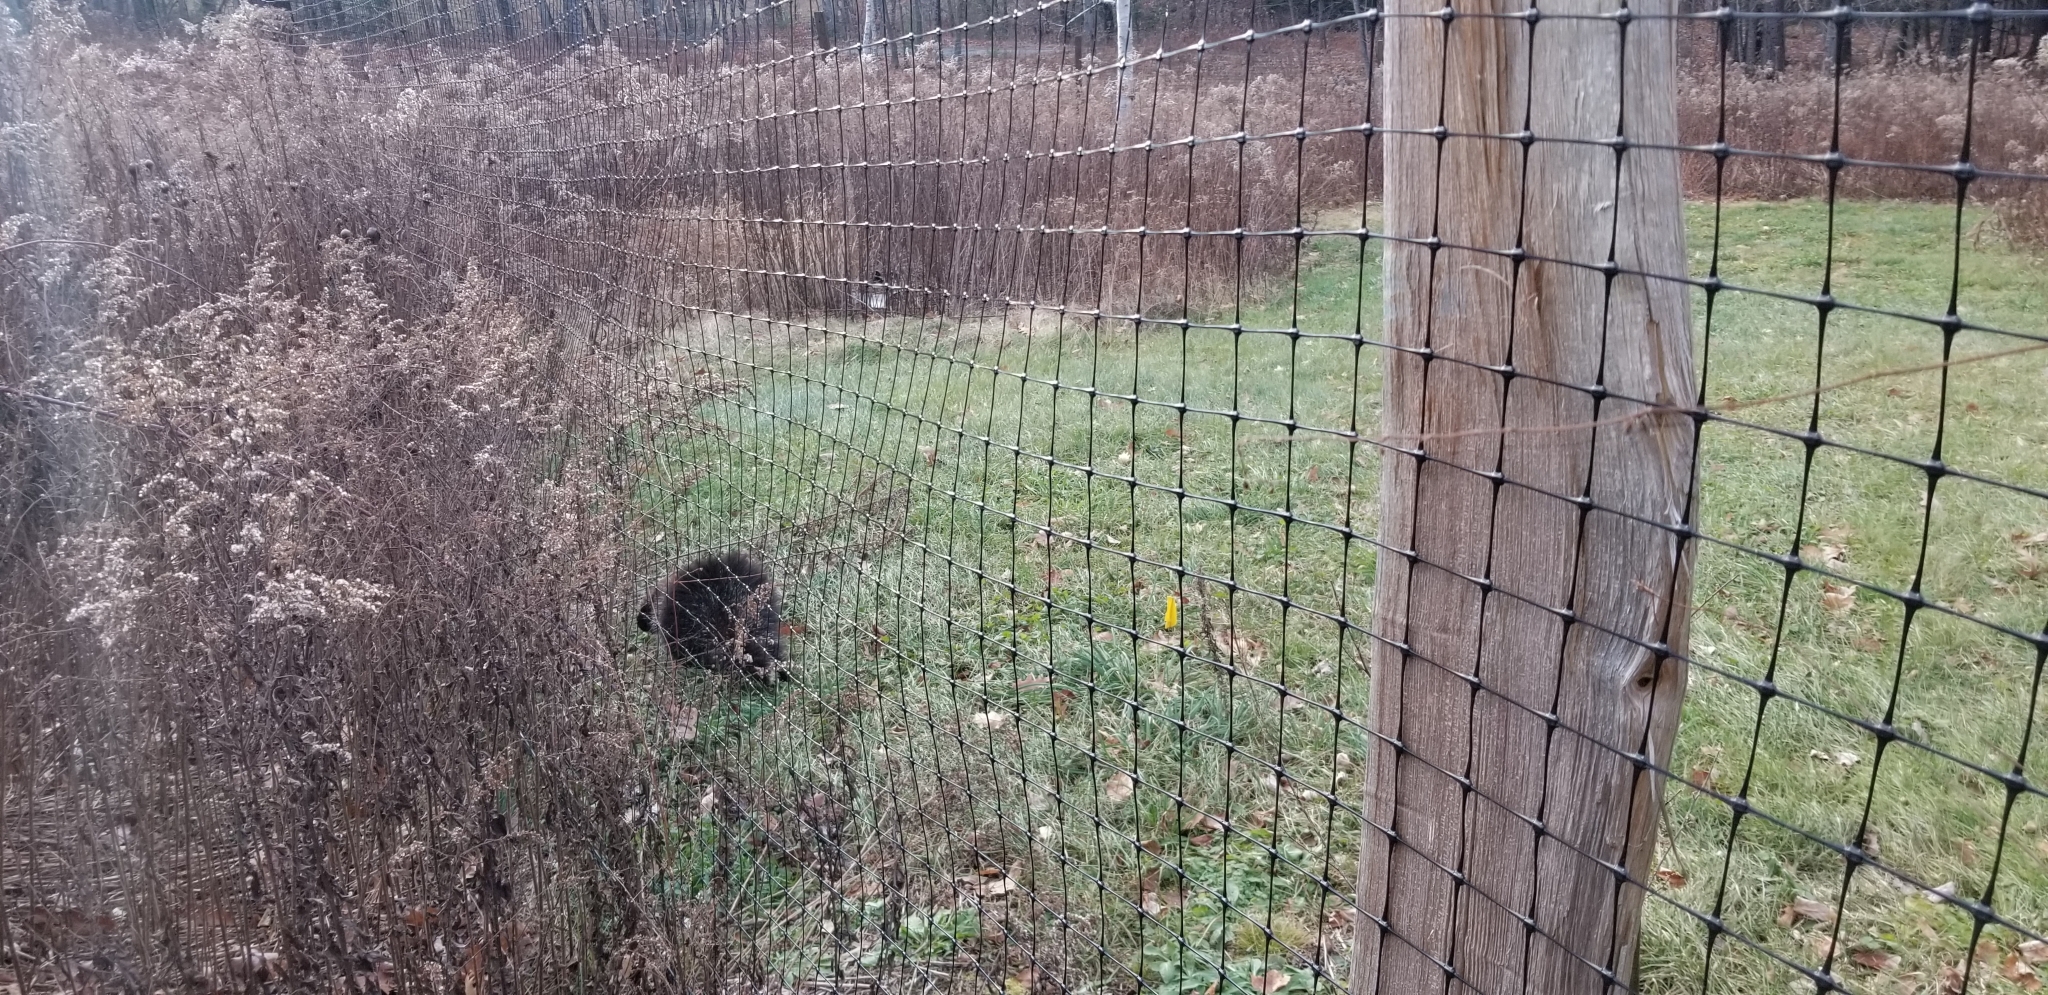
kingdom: Animalia
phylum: Chordata
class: Mammalia
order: Rodentia
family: Erethizontidae
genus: Erethizon
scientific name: Erethizon dorsatus
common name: North american porcupine
